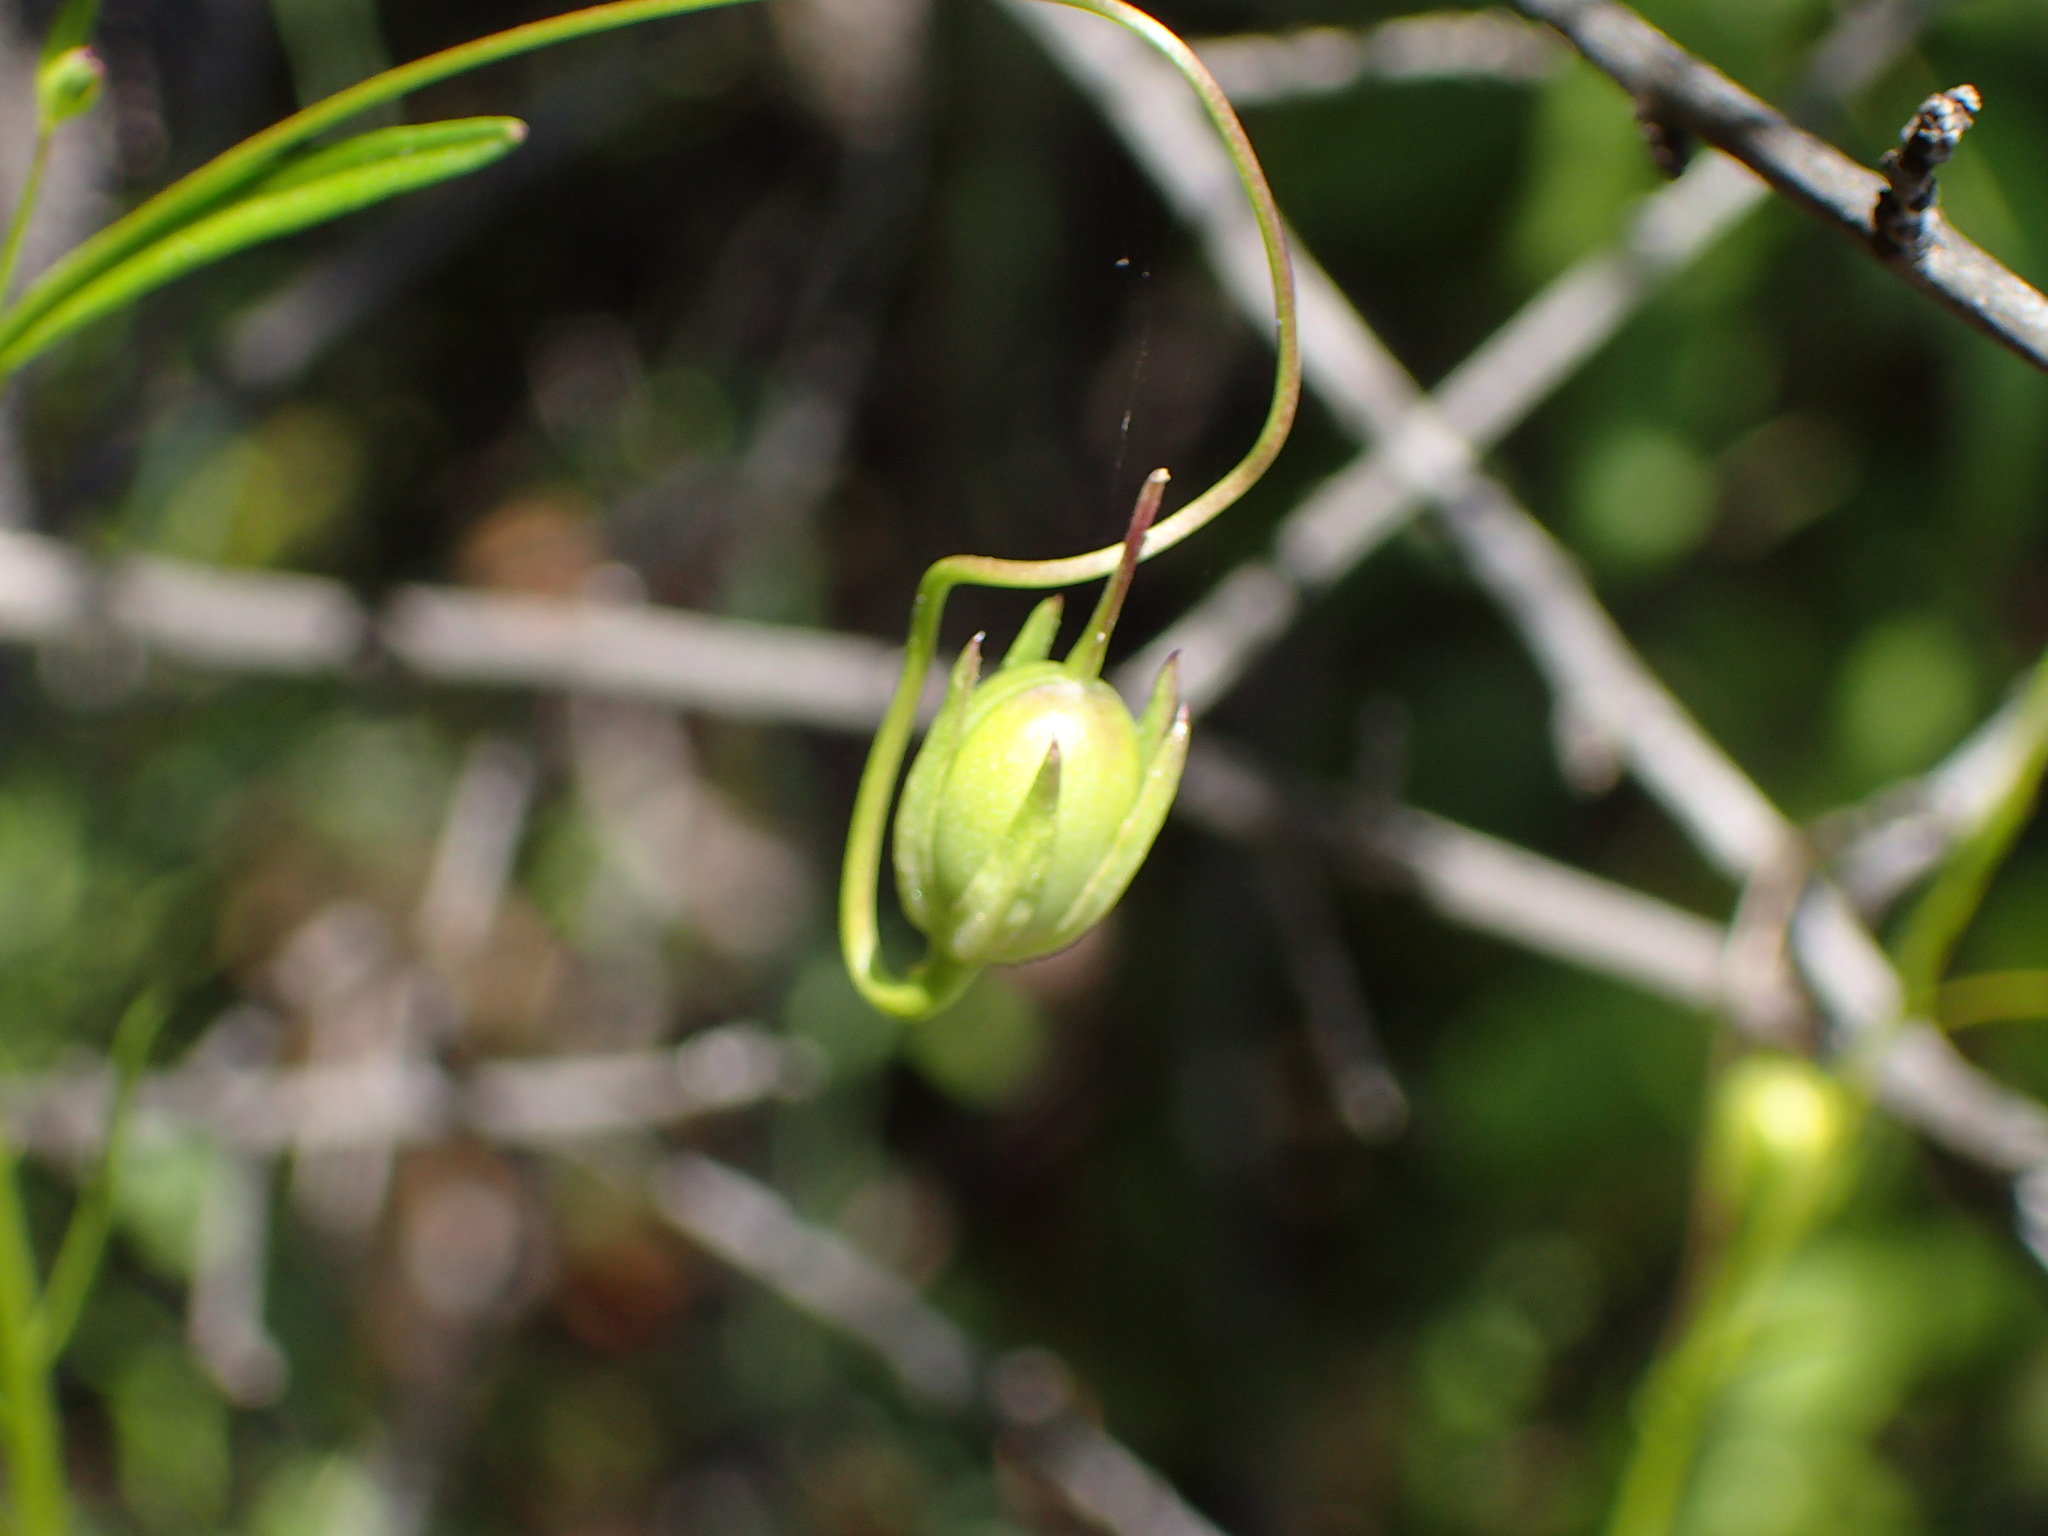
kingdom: Plantae
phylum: Tracheophyta
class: Magnoliopsida
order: Lamiales
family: Plantaginaceae
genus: Neogaerrhinum
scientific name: Neogaerrhinum strictum
